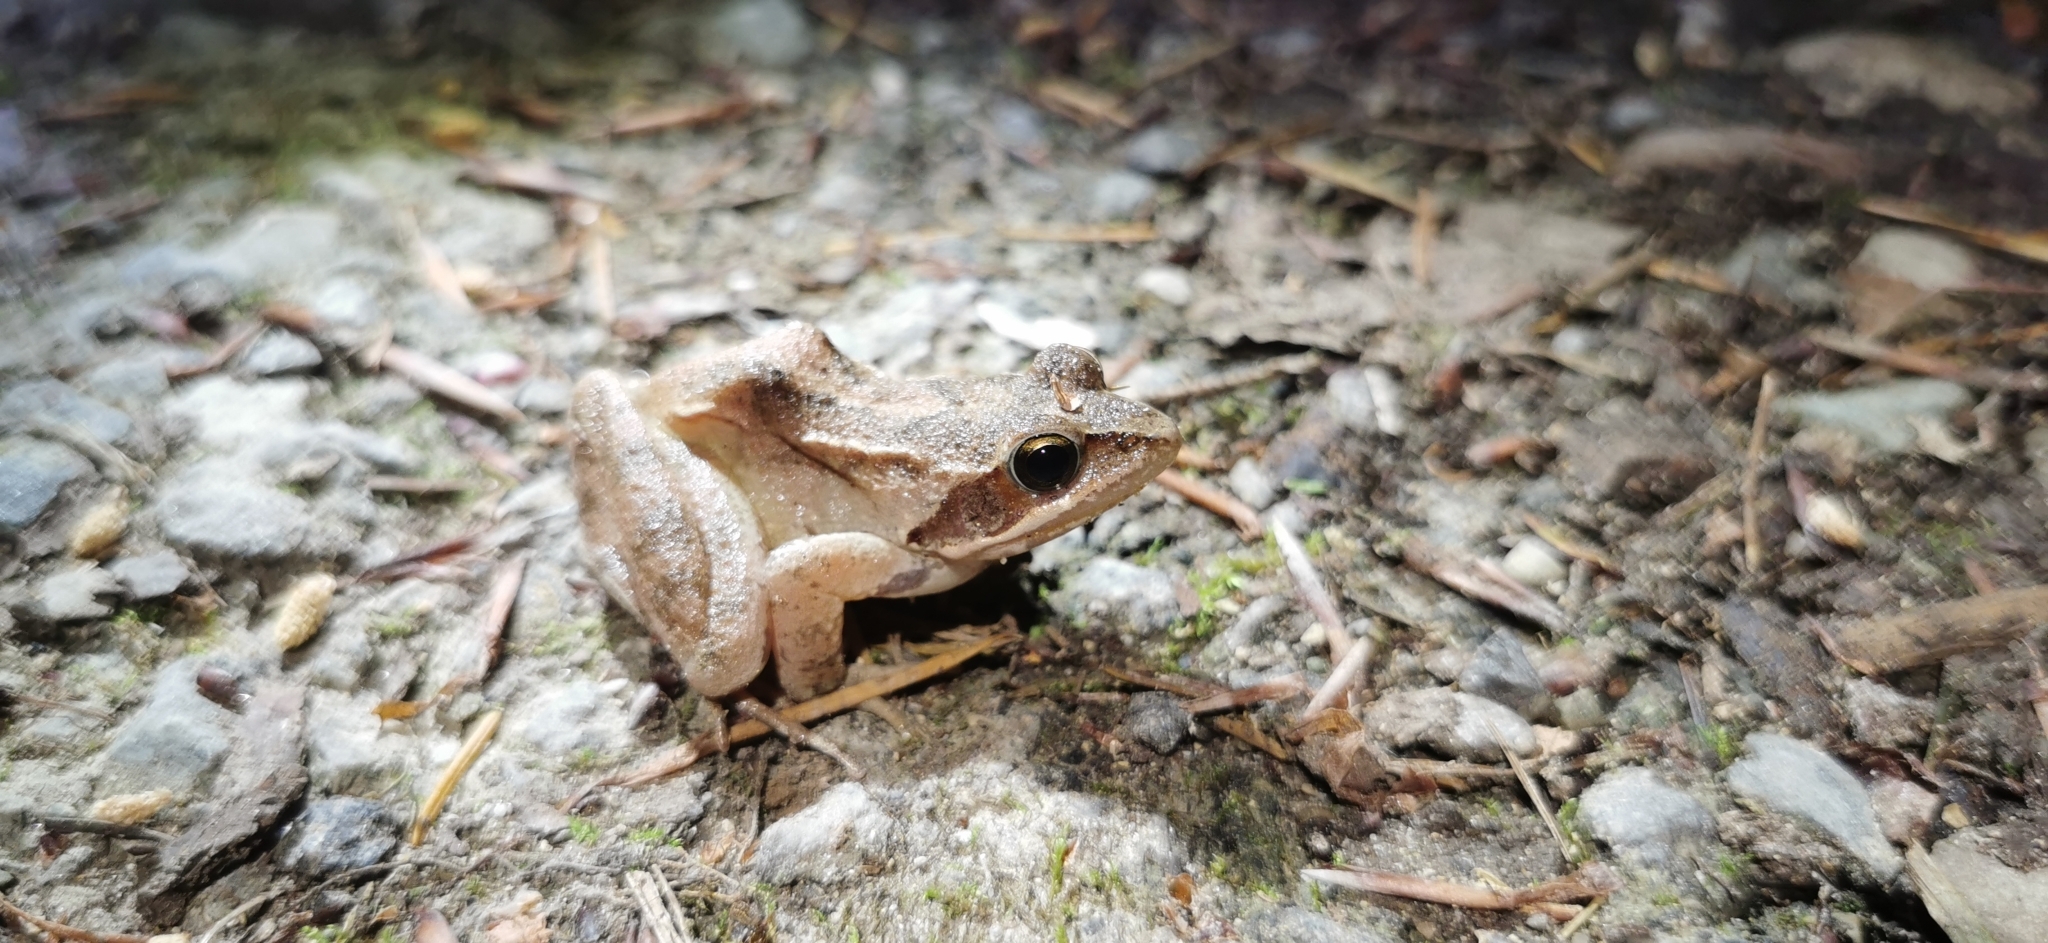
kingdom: Animalia
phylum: Chordata
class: Amphibia
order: Anura
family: Ranidae
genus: Rana
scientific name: Rana dalmatina
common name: Agile frog
